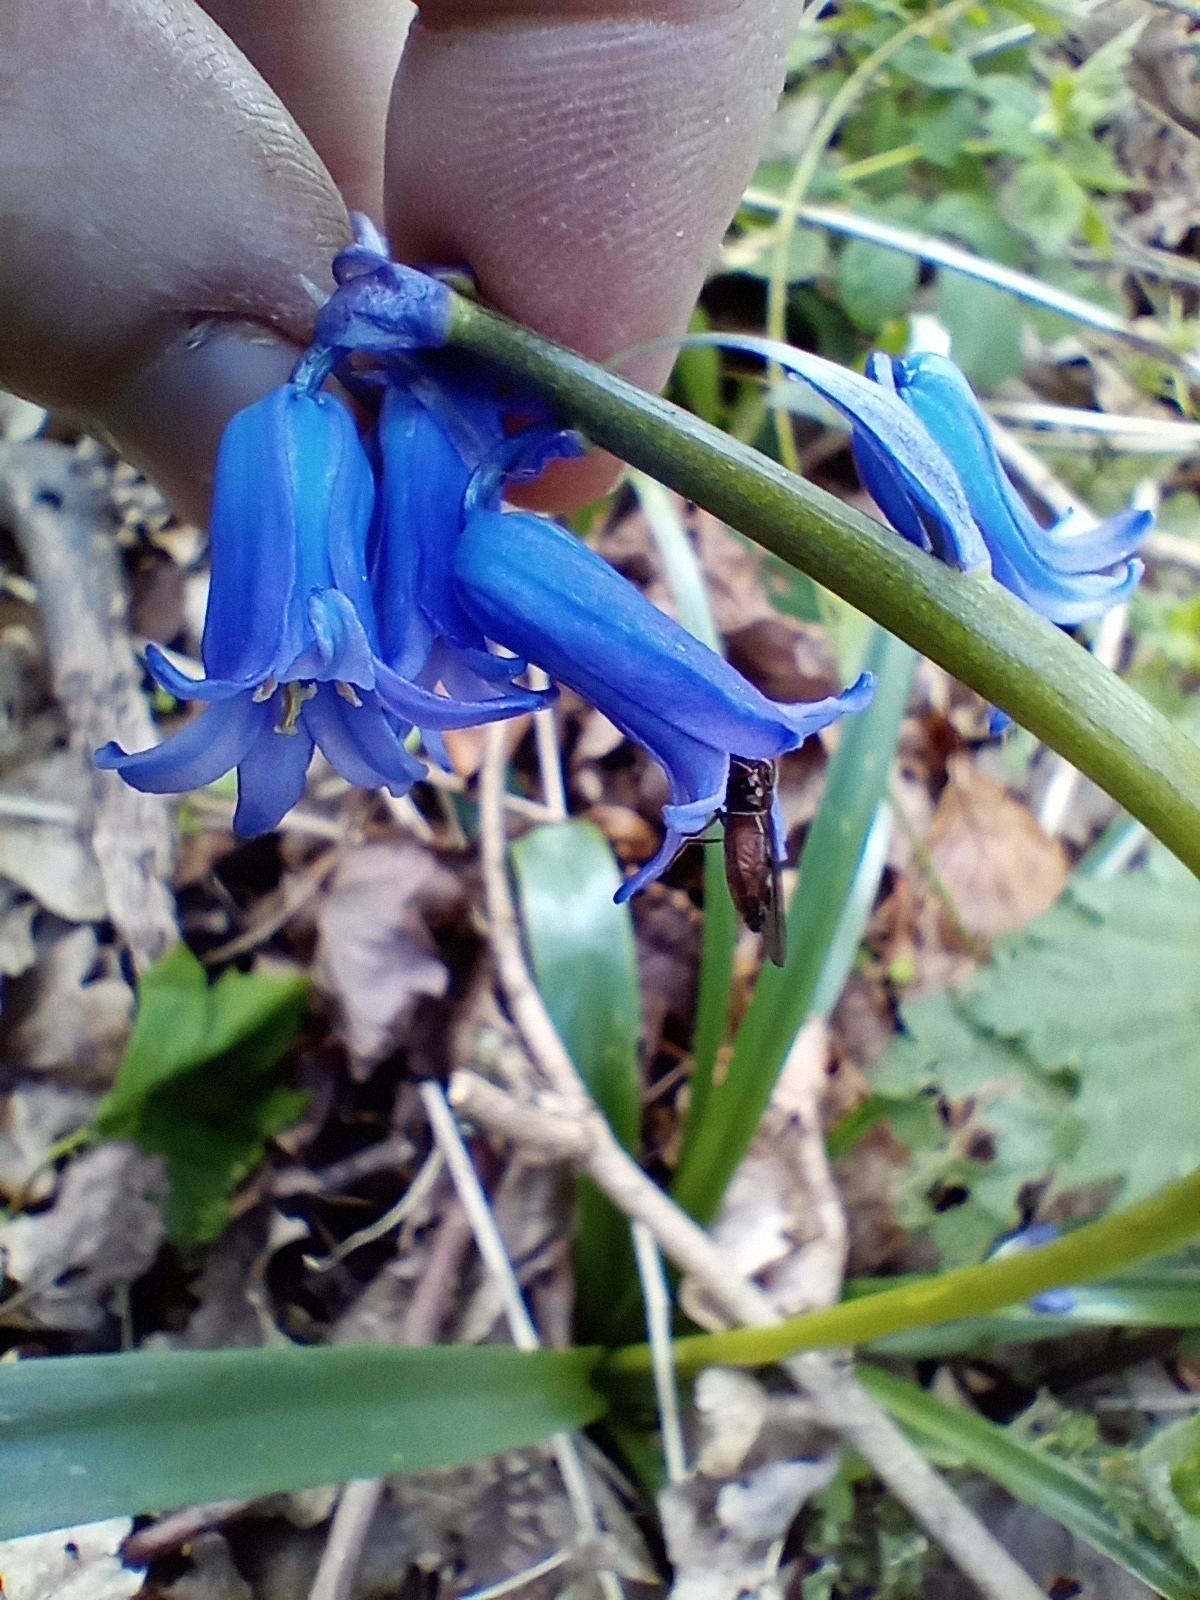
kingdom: Plantae
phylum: Tracheophyta
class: Liliopsida
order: Asparagales
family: Asparagaceae
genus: Hyacinthoides
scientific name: Hyacinthoides non-scripta
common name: Bluebell
